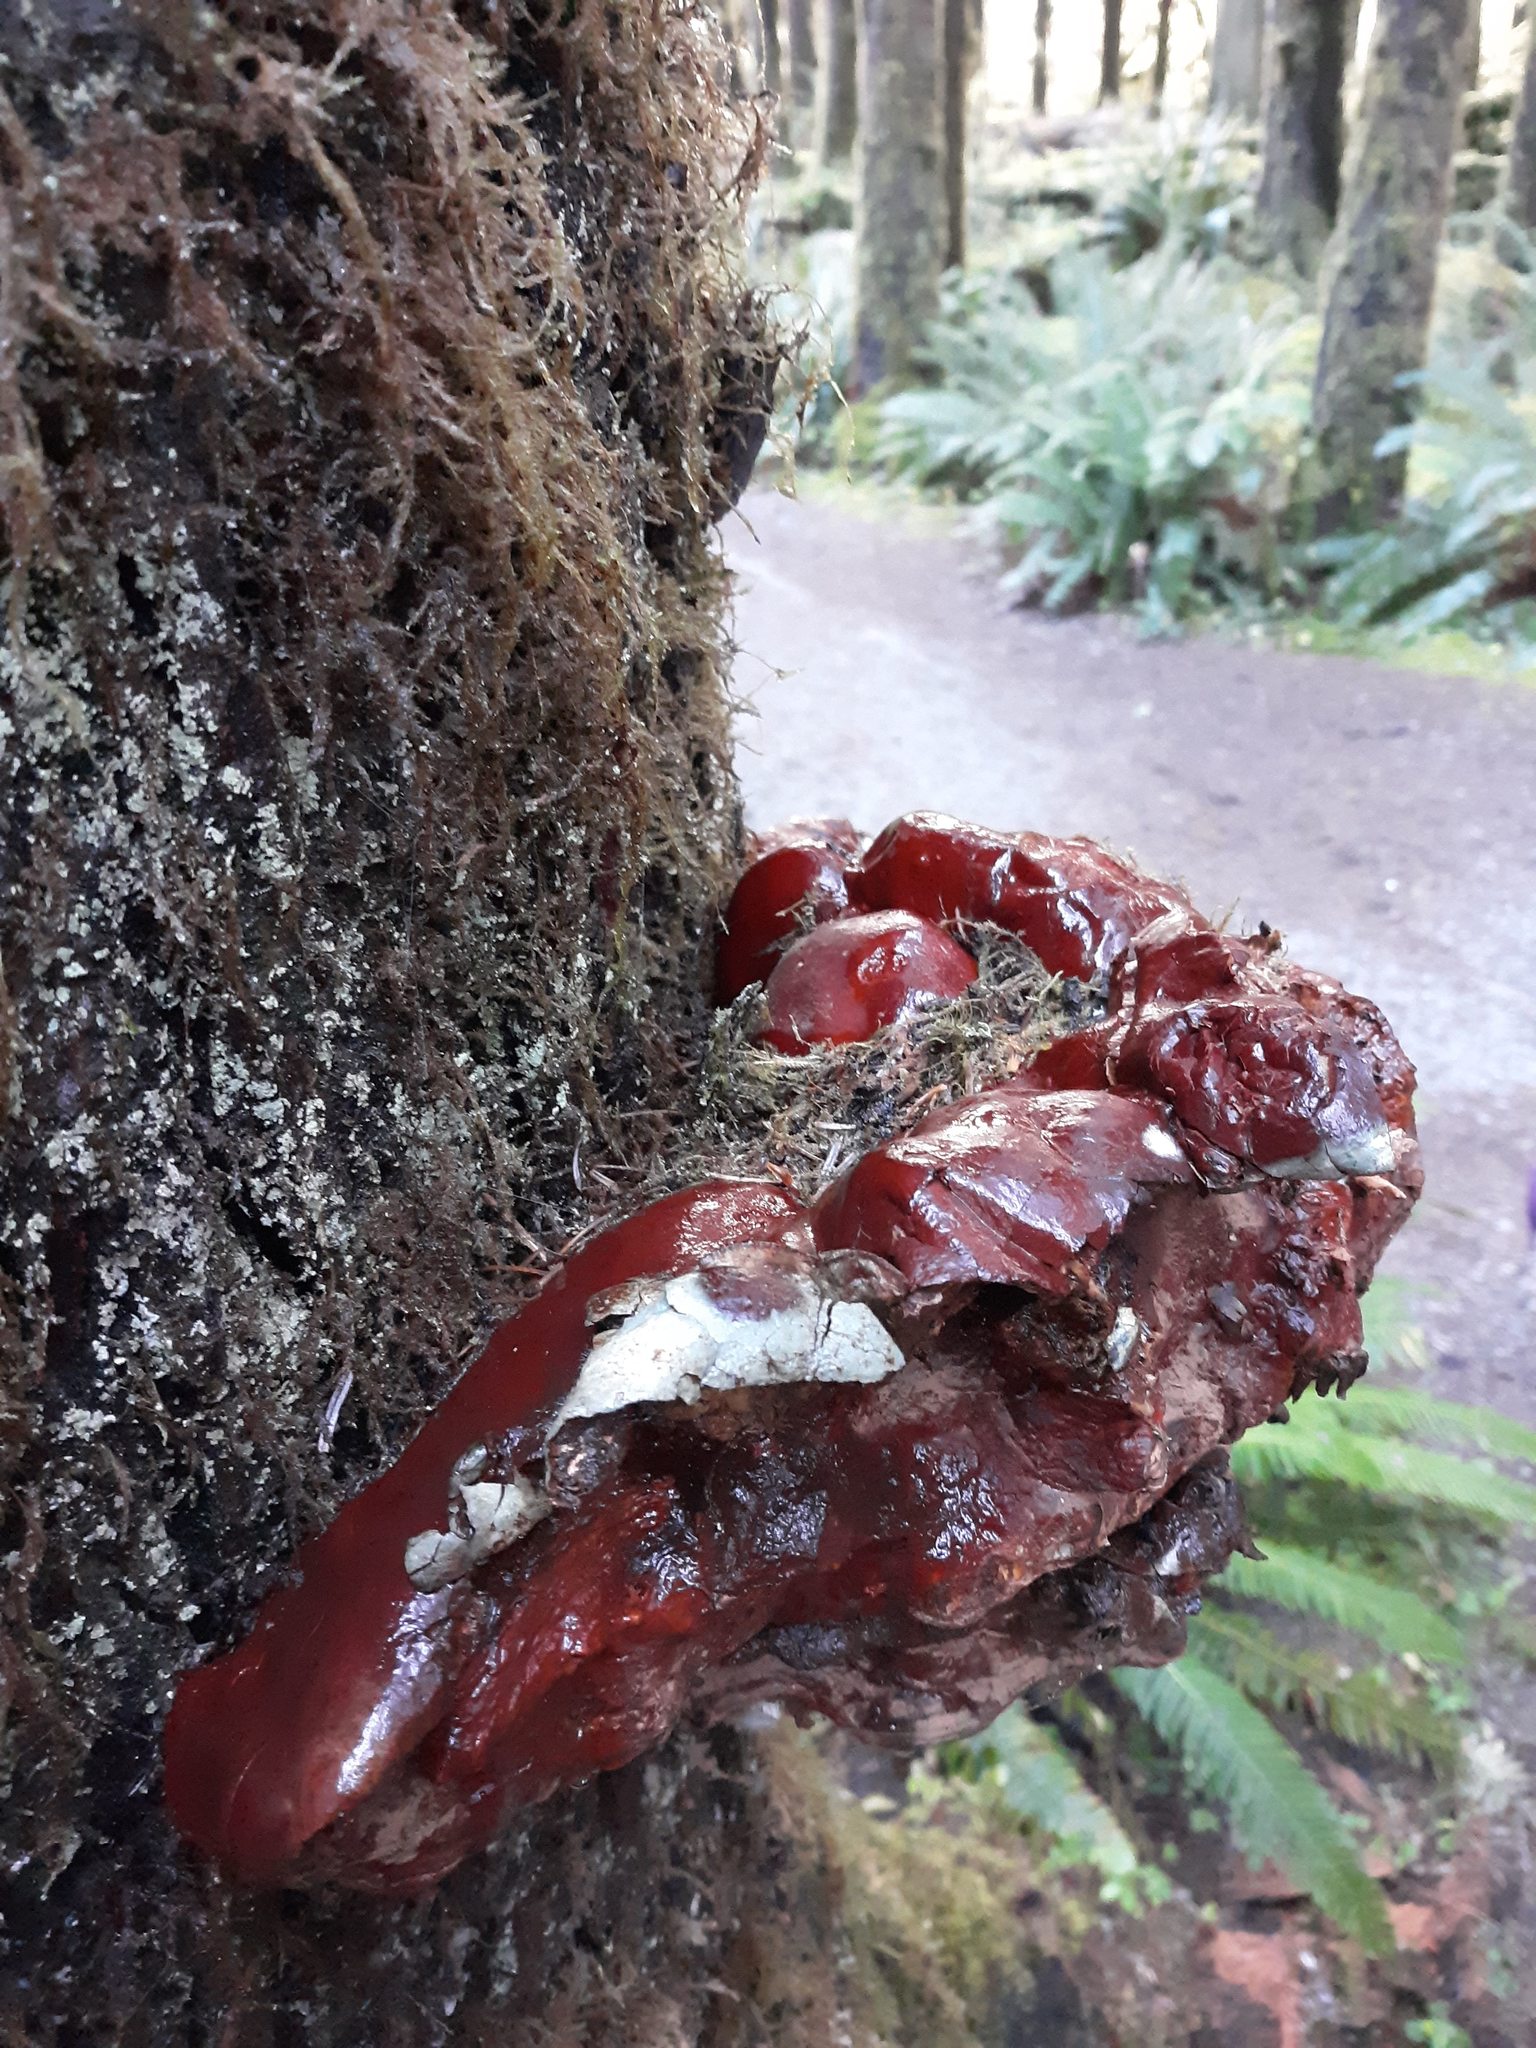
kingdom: Fungi
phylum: Basidiomycota
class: Agaricomycetes
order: Polyporales
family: Polyporaceae
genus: Ganoderma
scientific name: Ganoderma oregonense
